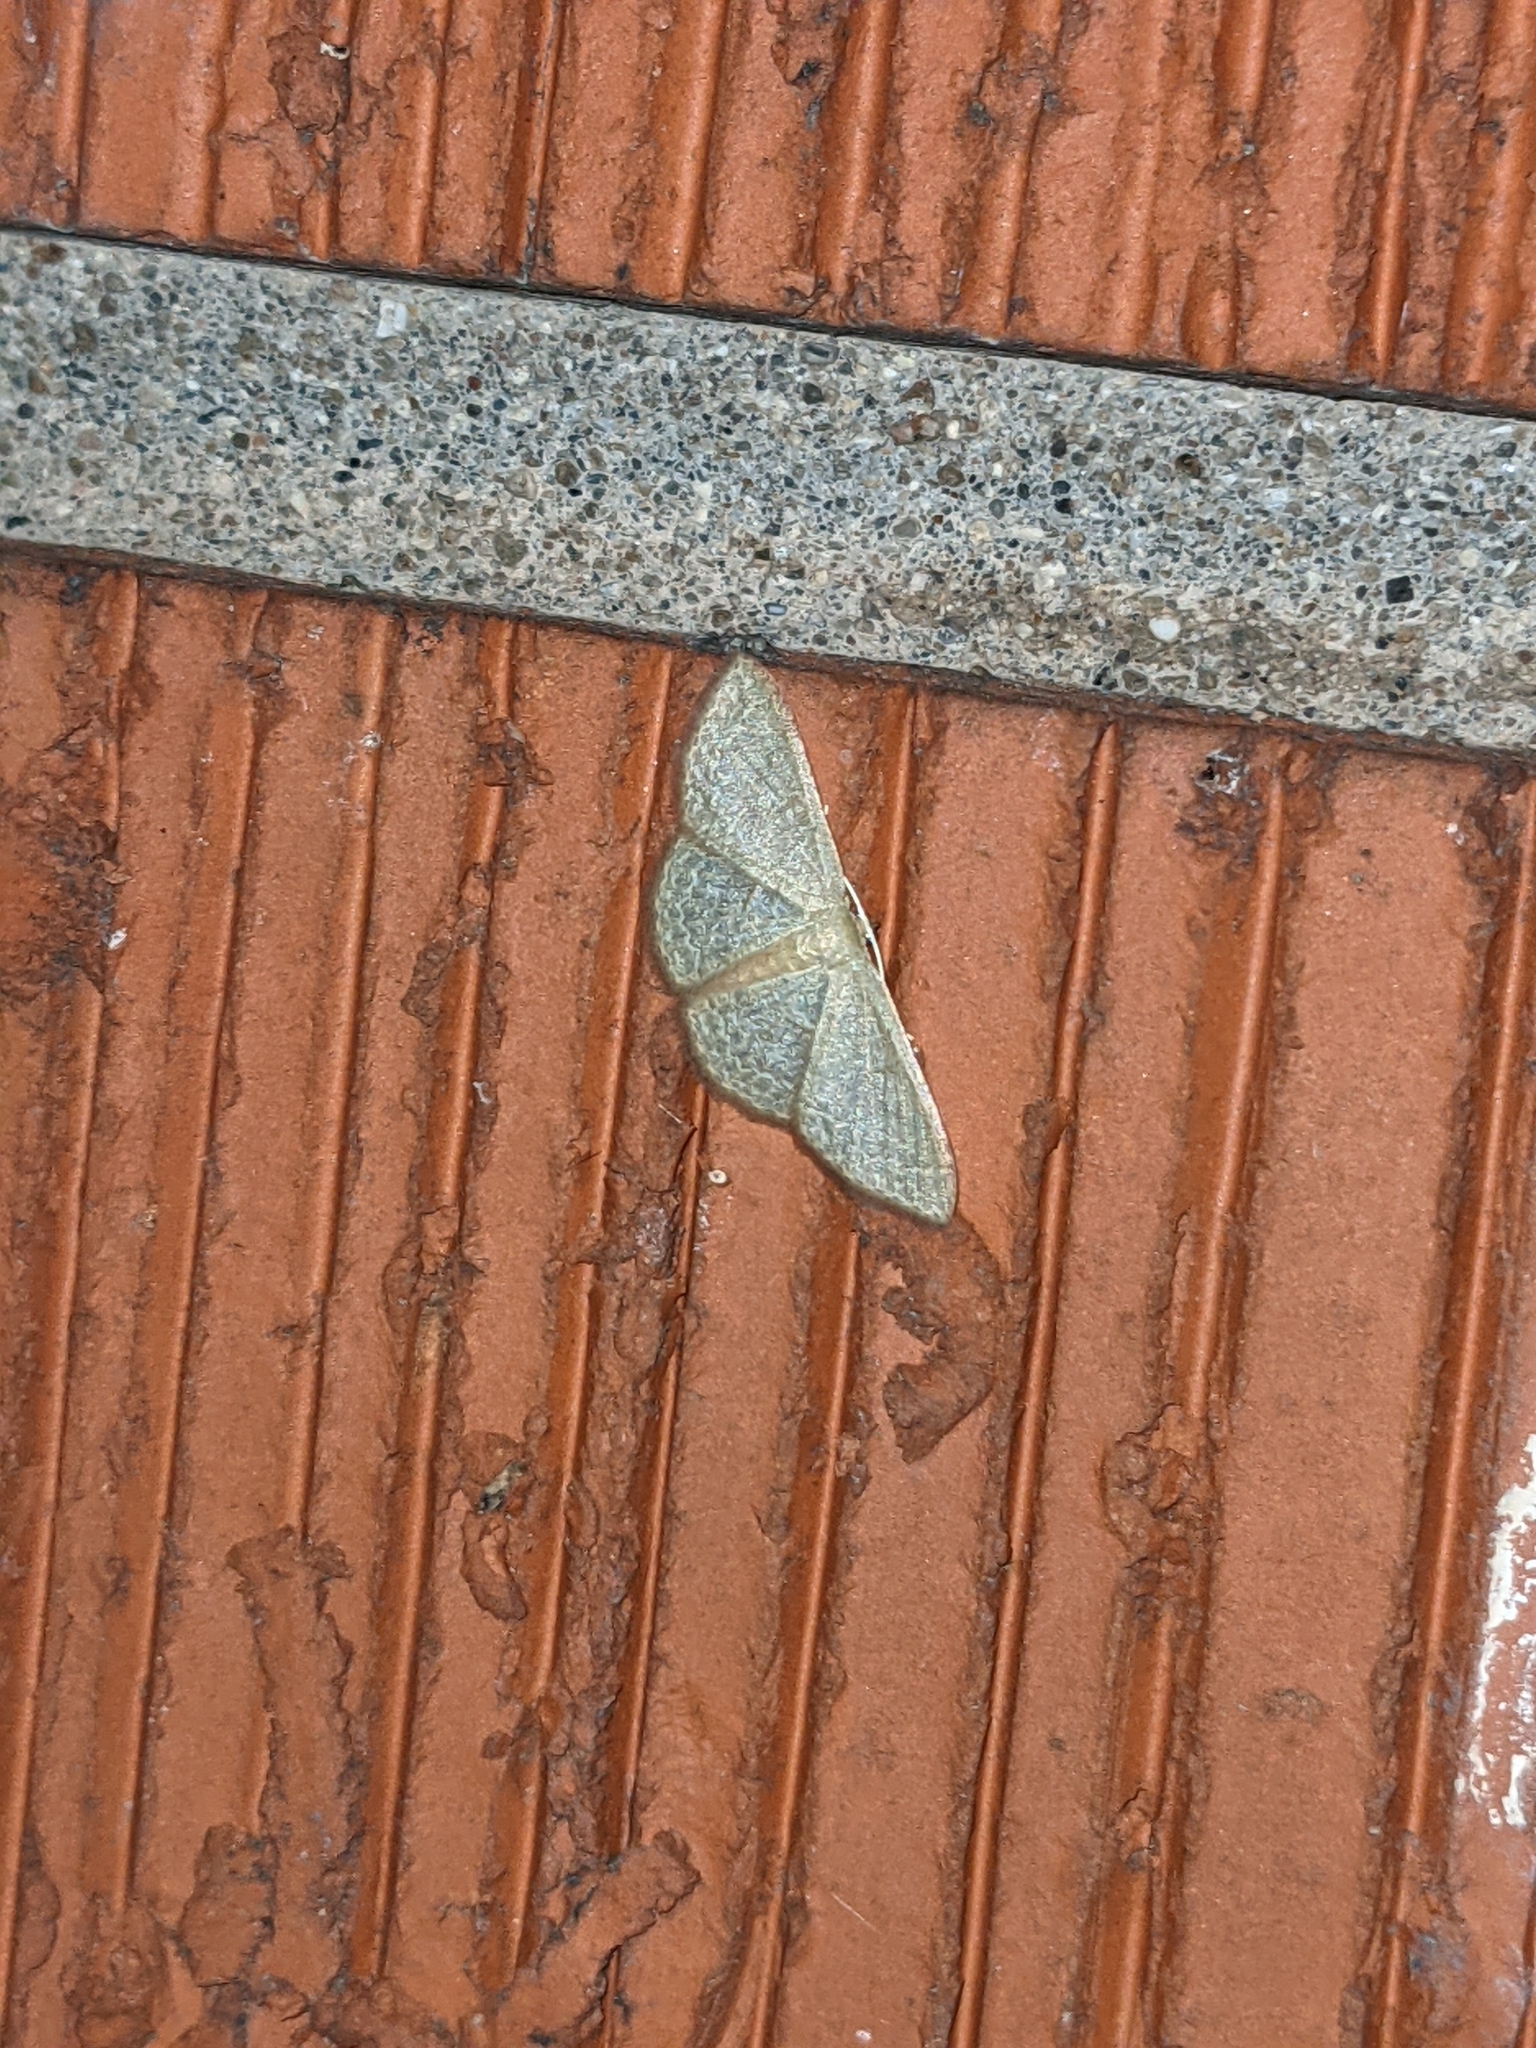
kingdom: Animalia
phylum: Arthropoda
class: Insecta
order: Lepidoptera
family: Geometridae
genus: Pleuroprucha
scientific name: Pleuroprucha insulsaria
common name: Common tan wave
